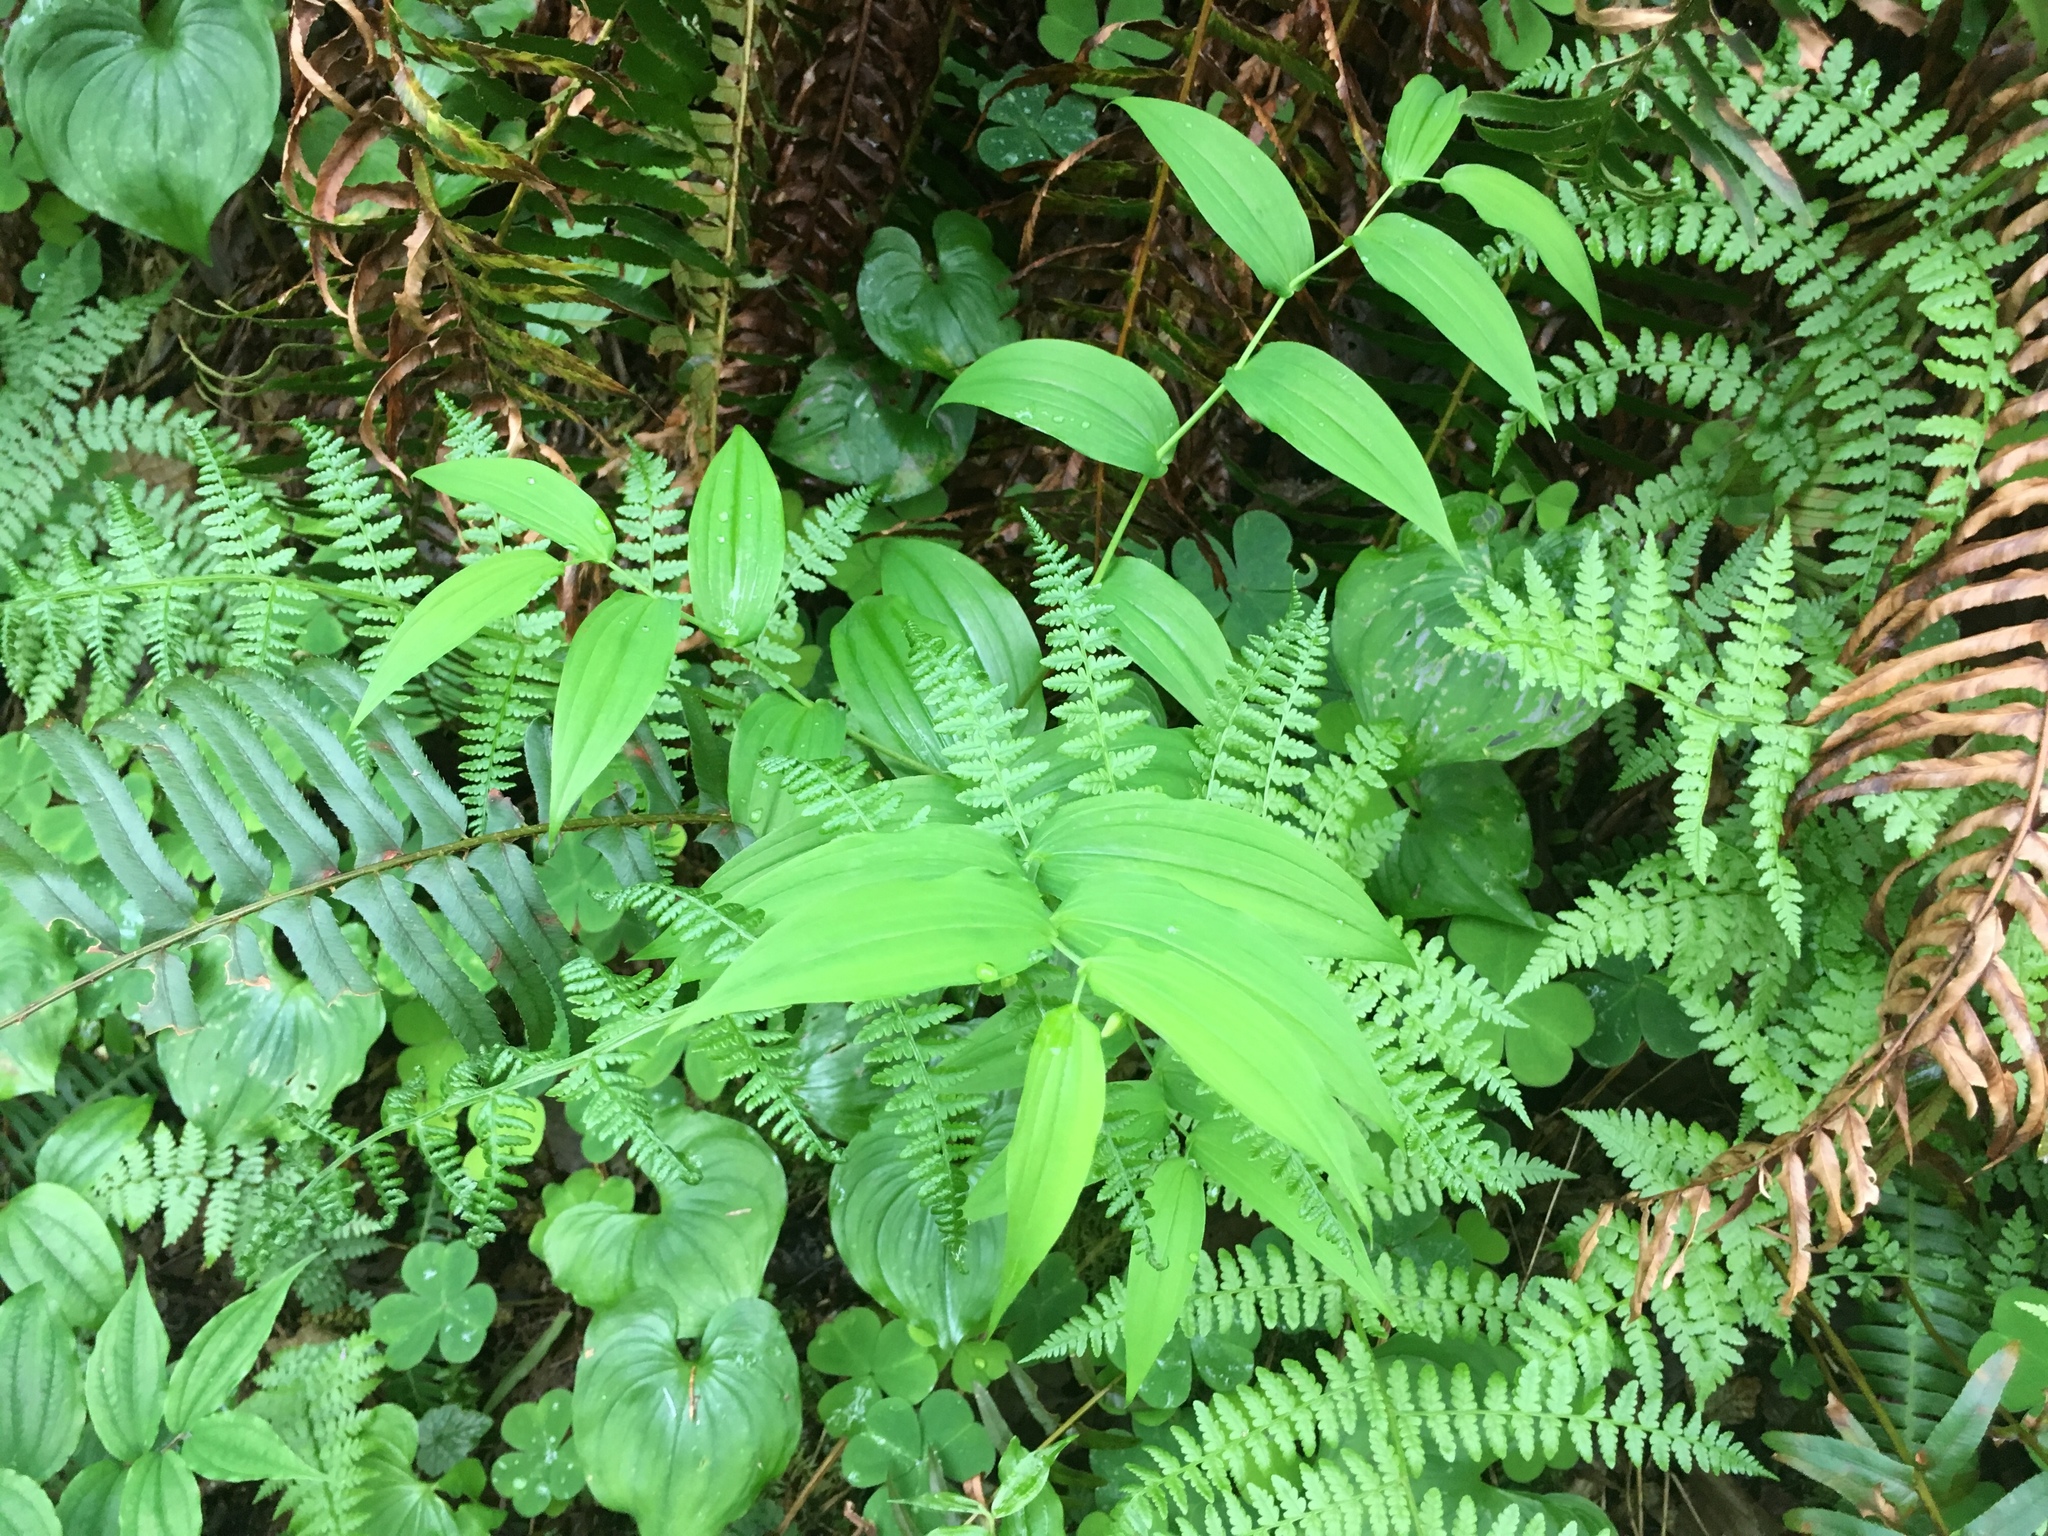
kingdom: Plantae
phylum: Tracheophyta
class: Liliopsida
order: Liliales
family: Liliaceae
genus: Streptopus
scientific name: Streptopus amplexifolius
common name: Clasp twisted stalk
